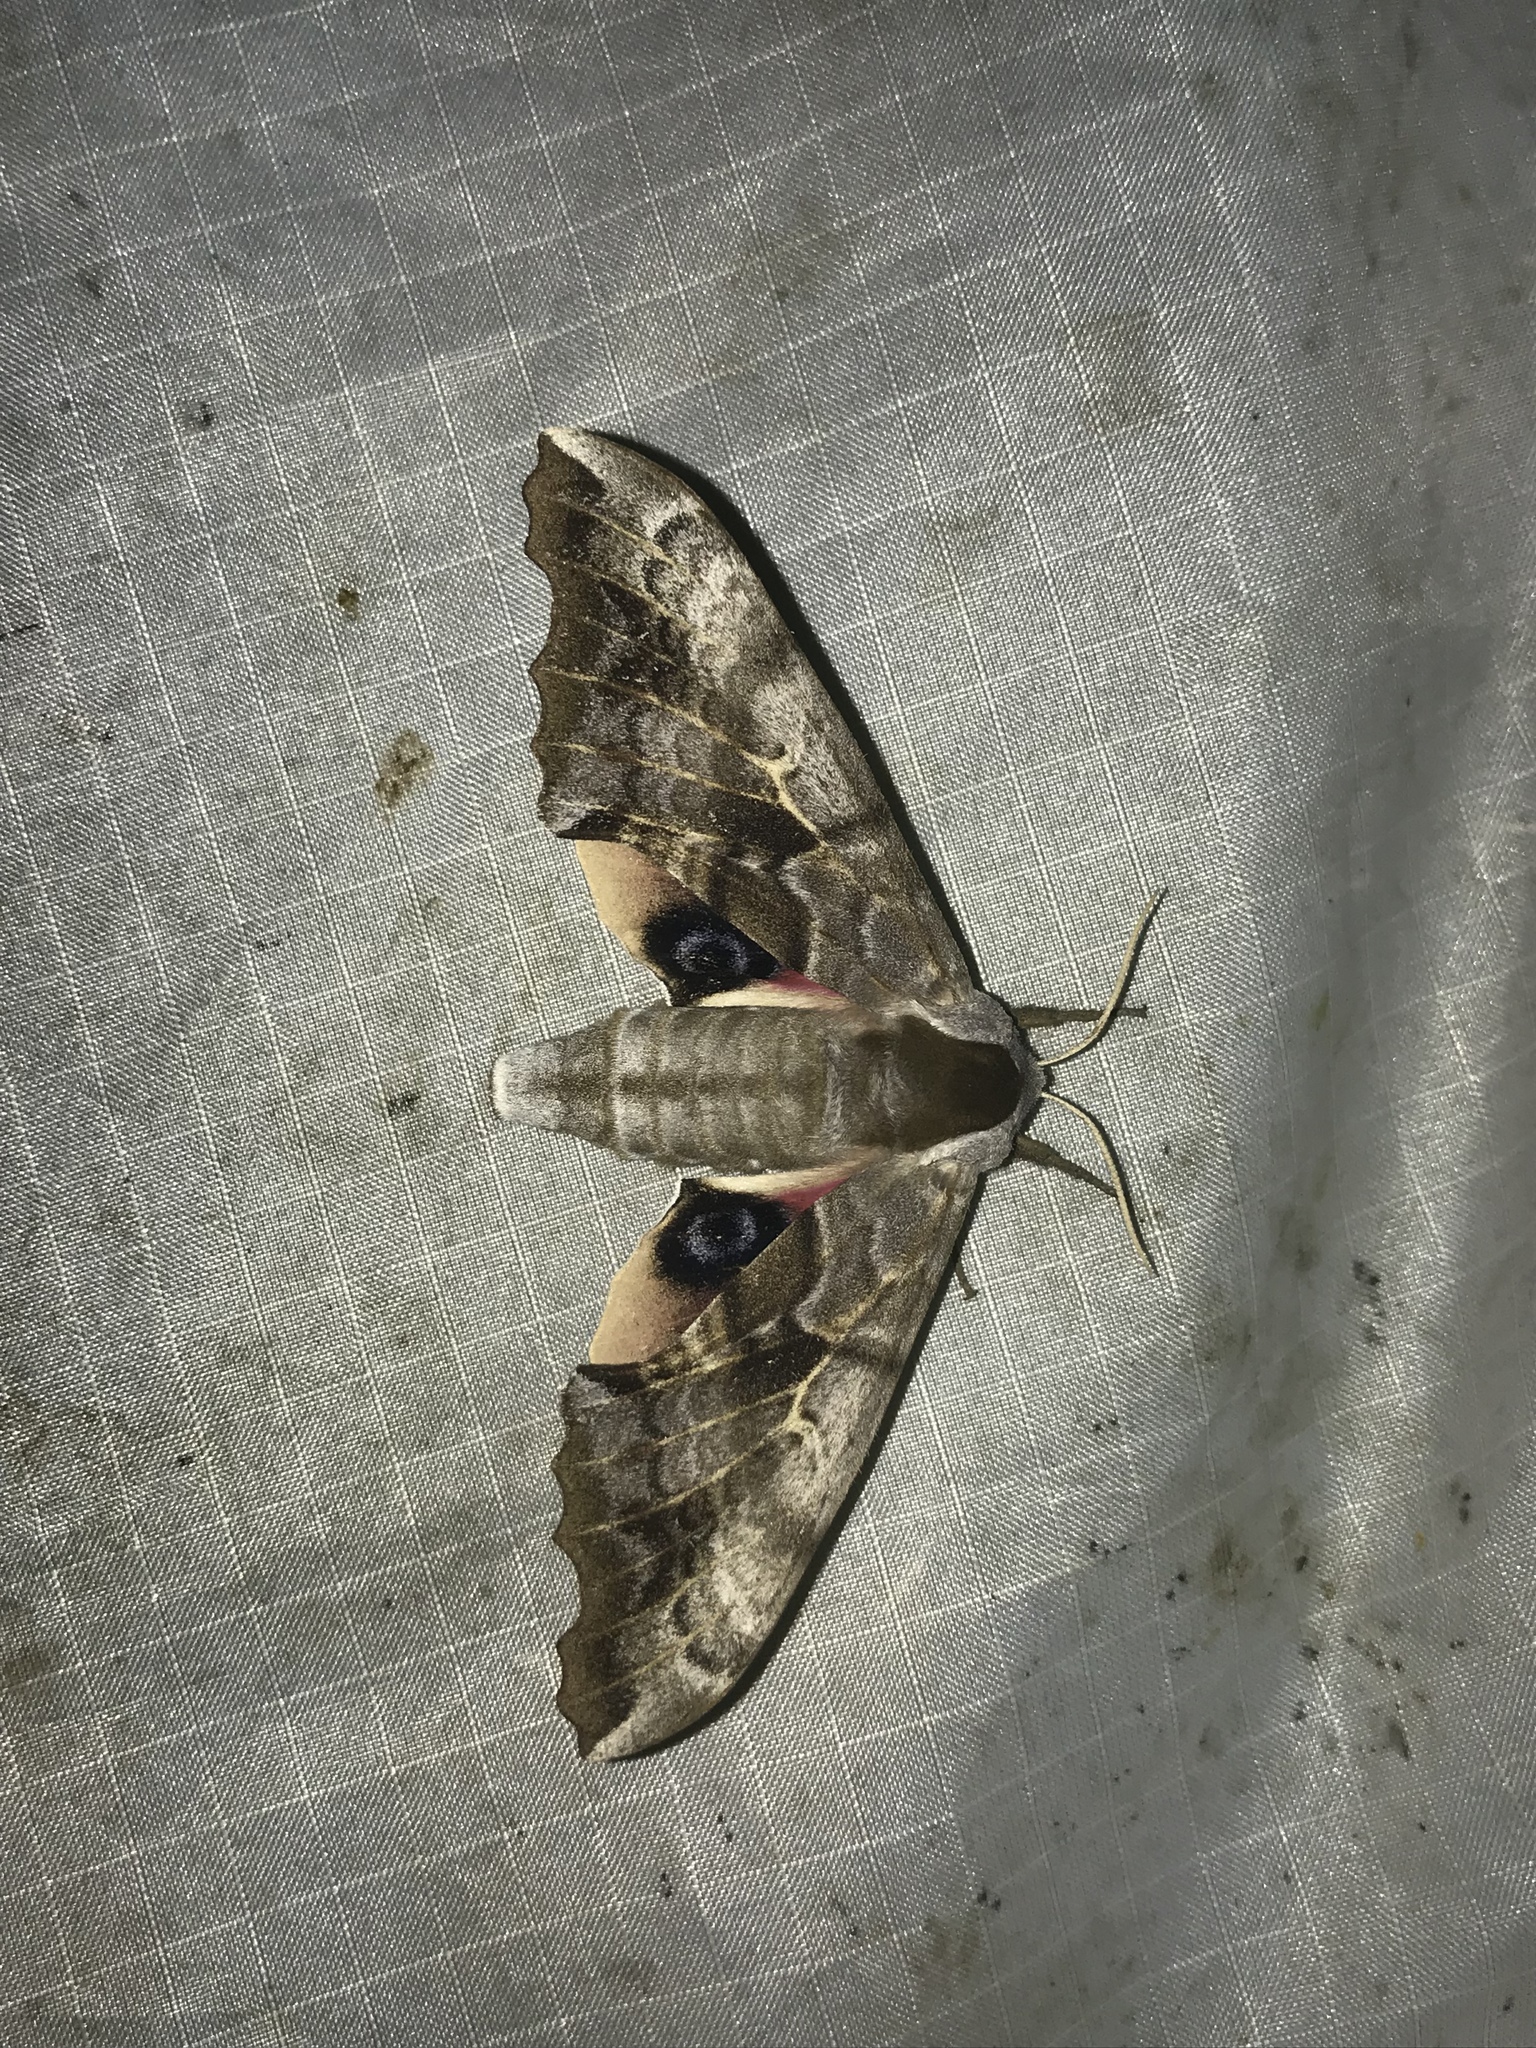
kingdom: Animalia
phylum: Arthropoda
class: Insecta
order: Lepidoptera
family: Sphingidae
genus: Smerinthus
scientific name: Smerinthus cerisyi
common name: Cerisy's sphinx moth
